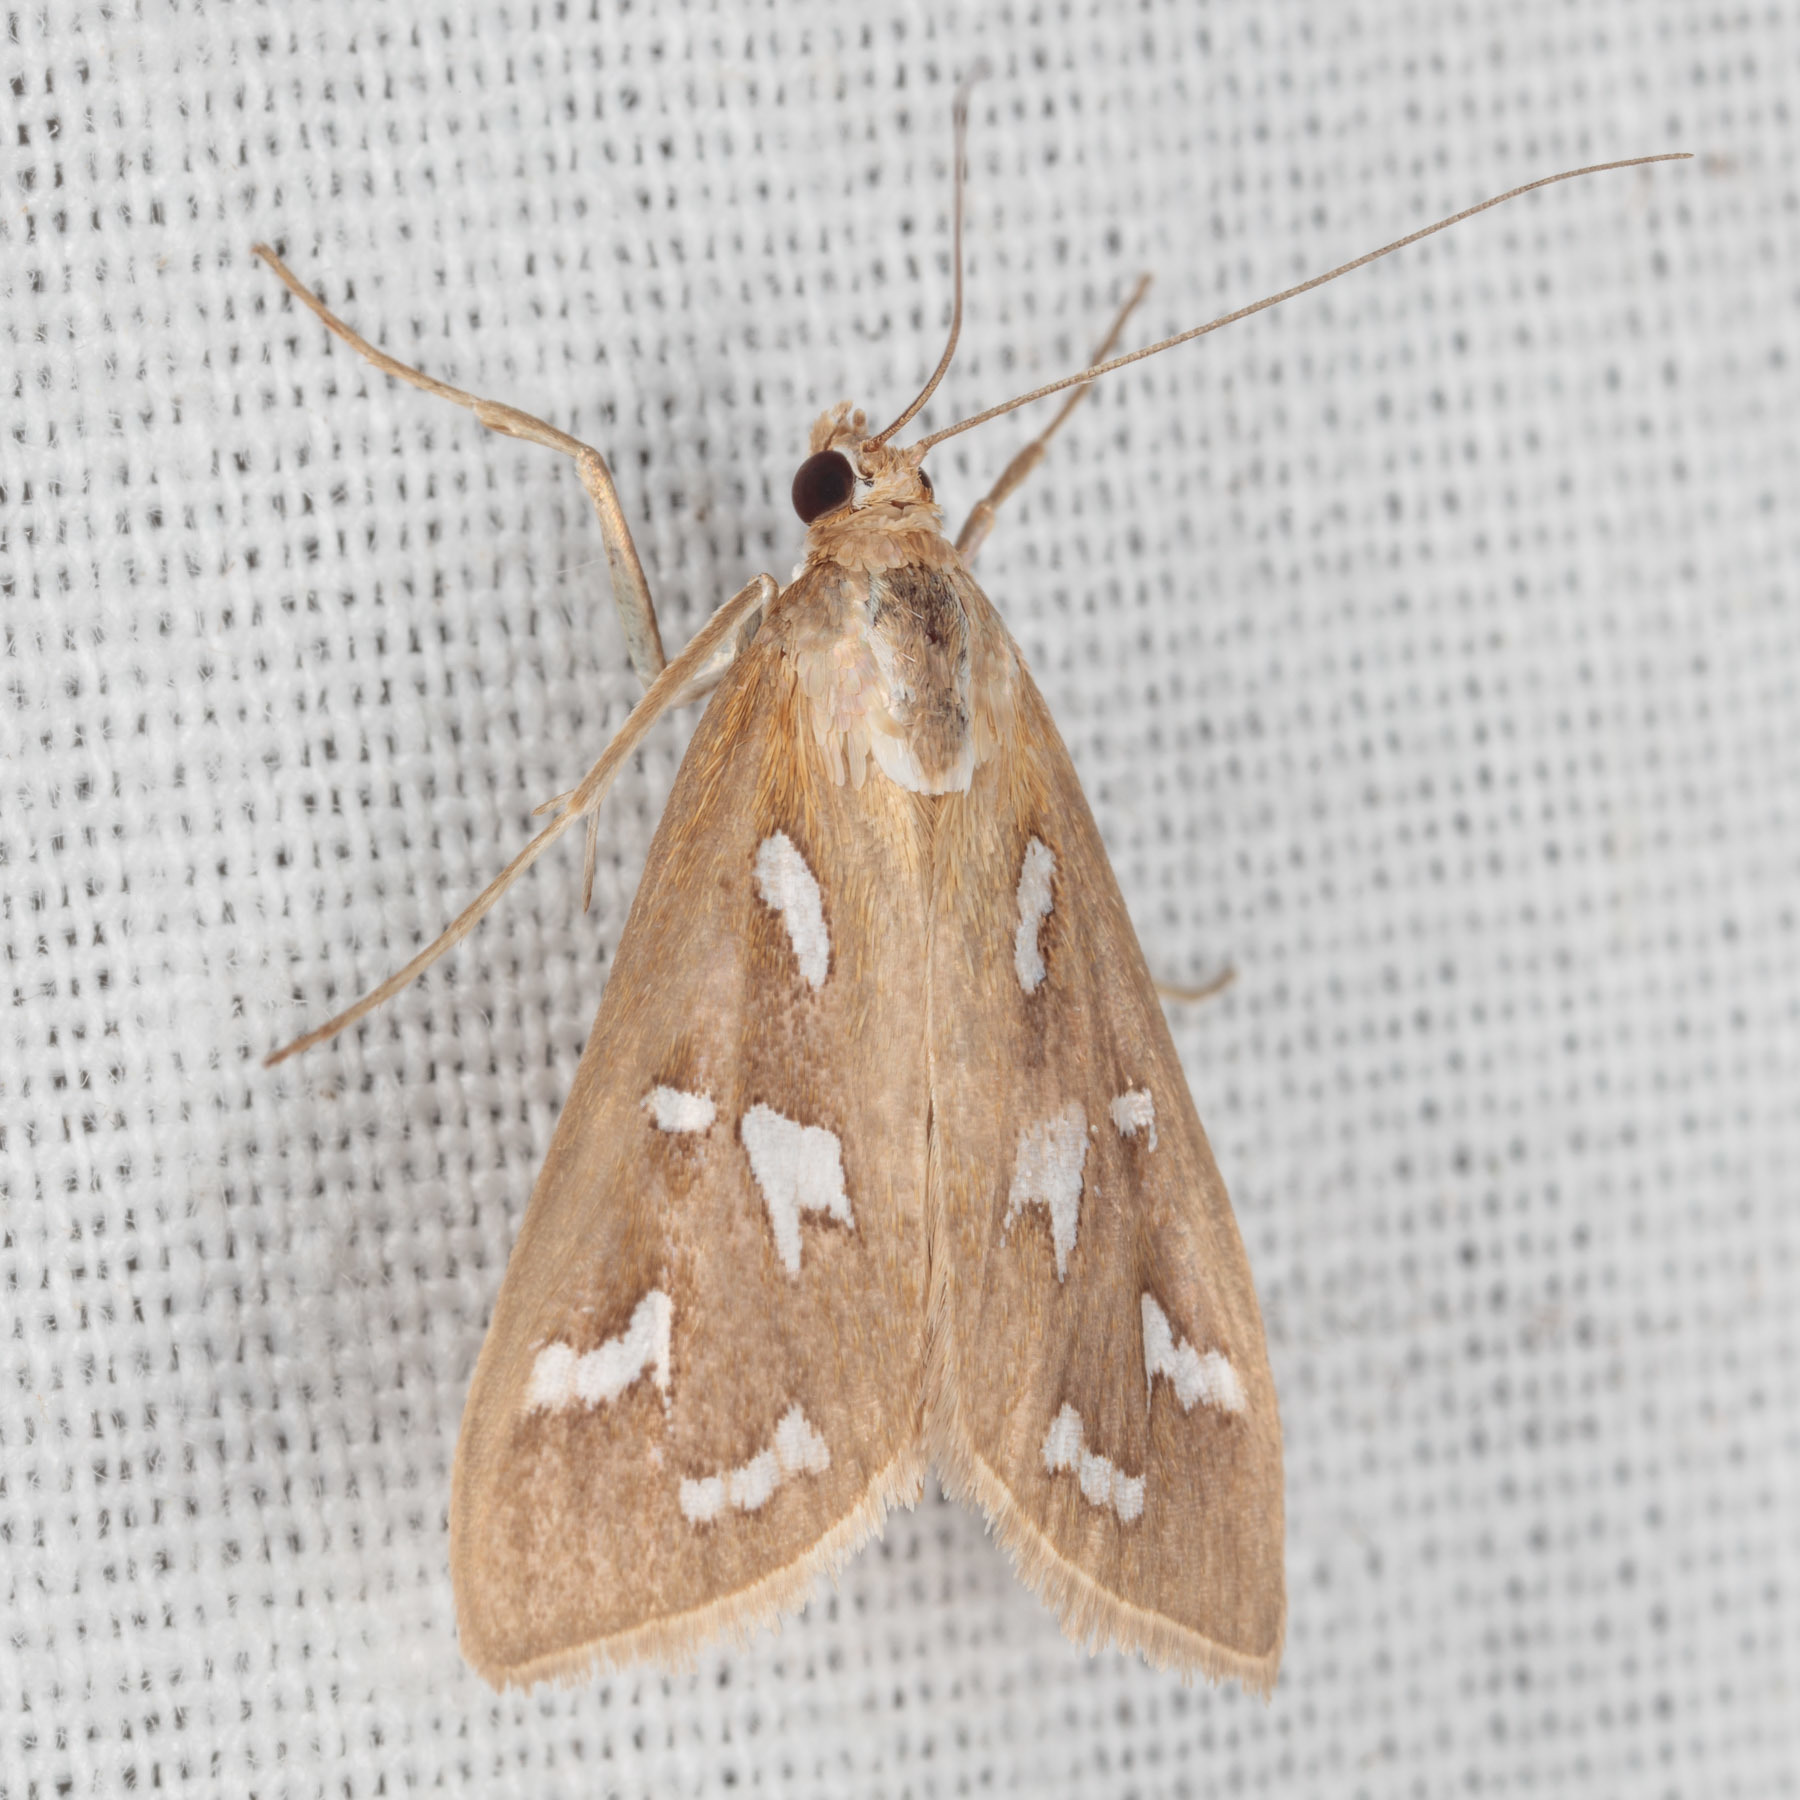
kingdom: Animalia
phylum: Arthropoda
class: Insecta
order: Lepidoptera
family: Crambidae
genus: Diastictis
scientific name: Diastictis fracturalis
